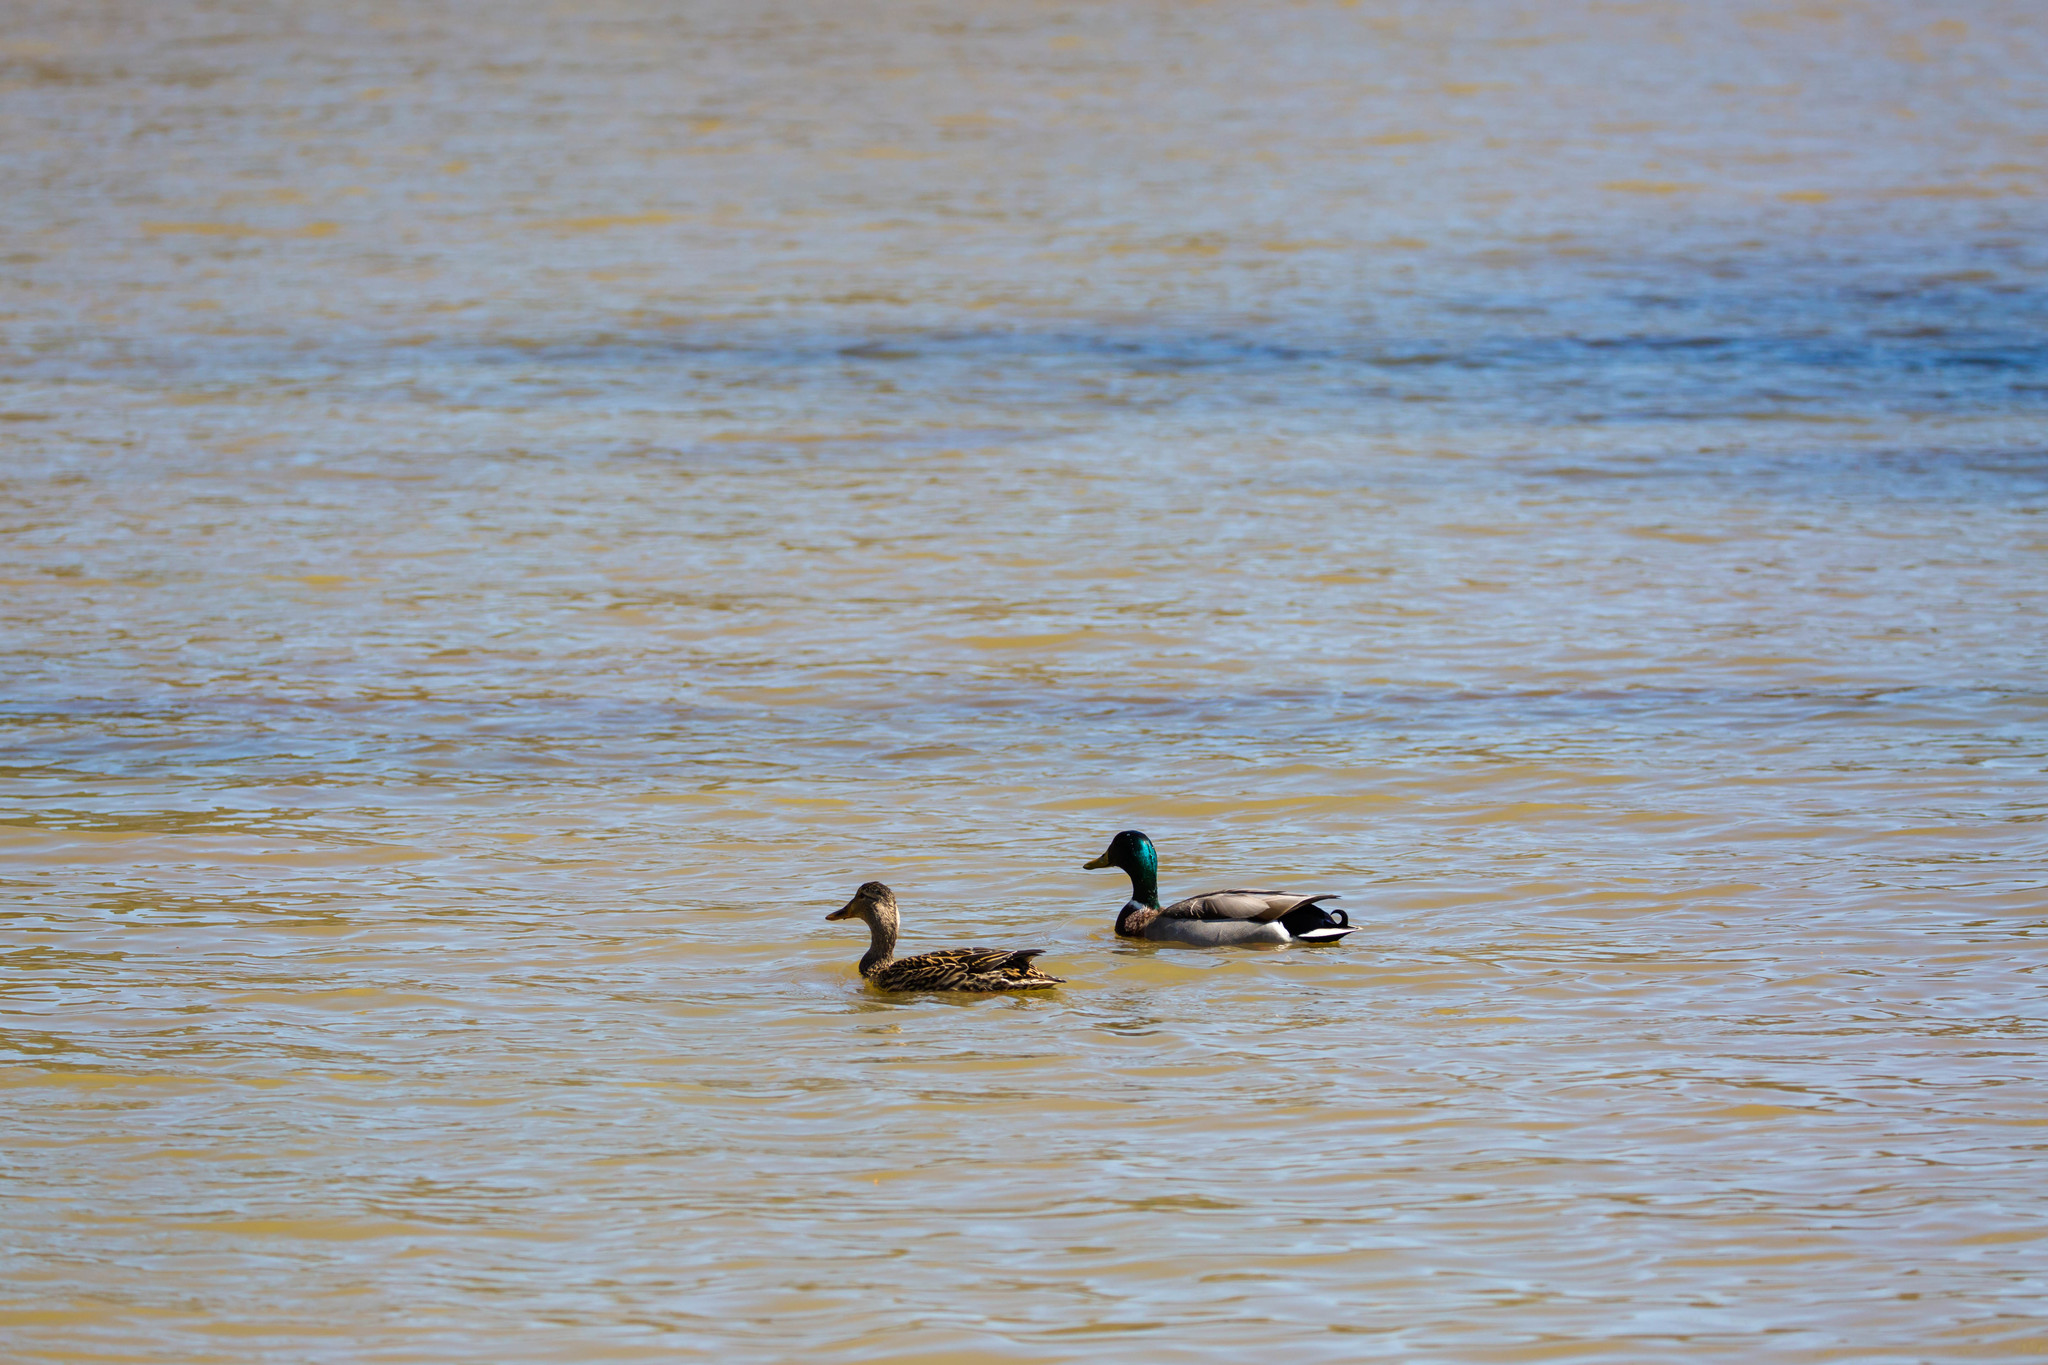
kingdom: Animalia
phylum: Chordata
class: Aves
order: Anseriformes
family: Anatidae
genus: Anas
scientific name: Anas platyrhynchos
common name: Mallard
